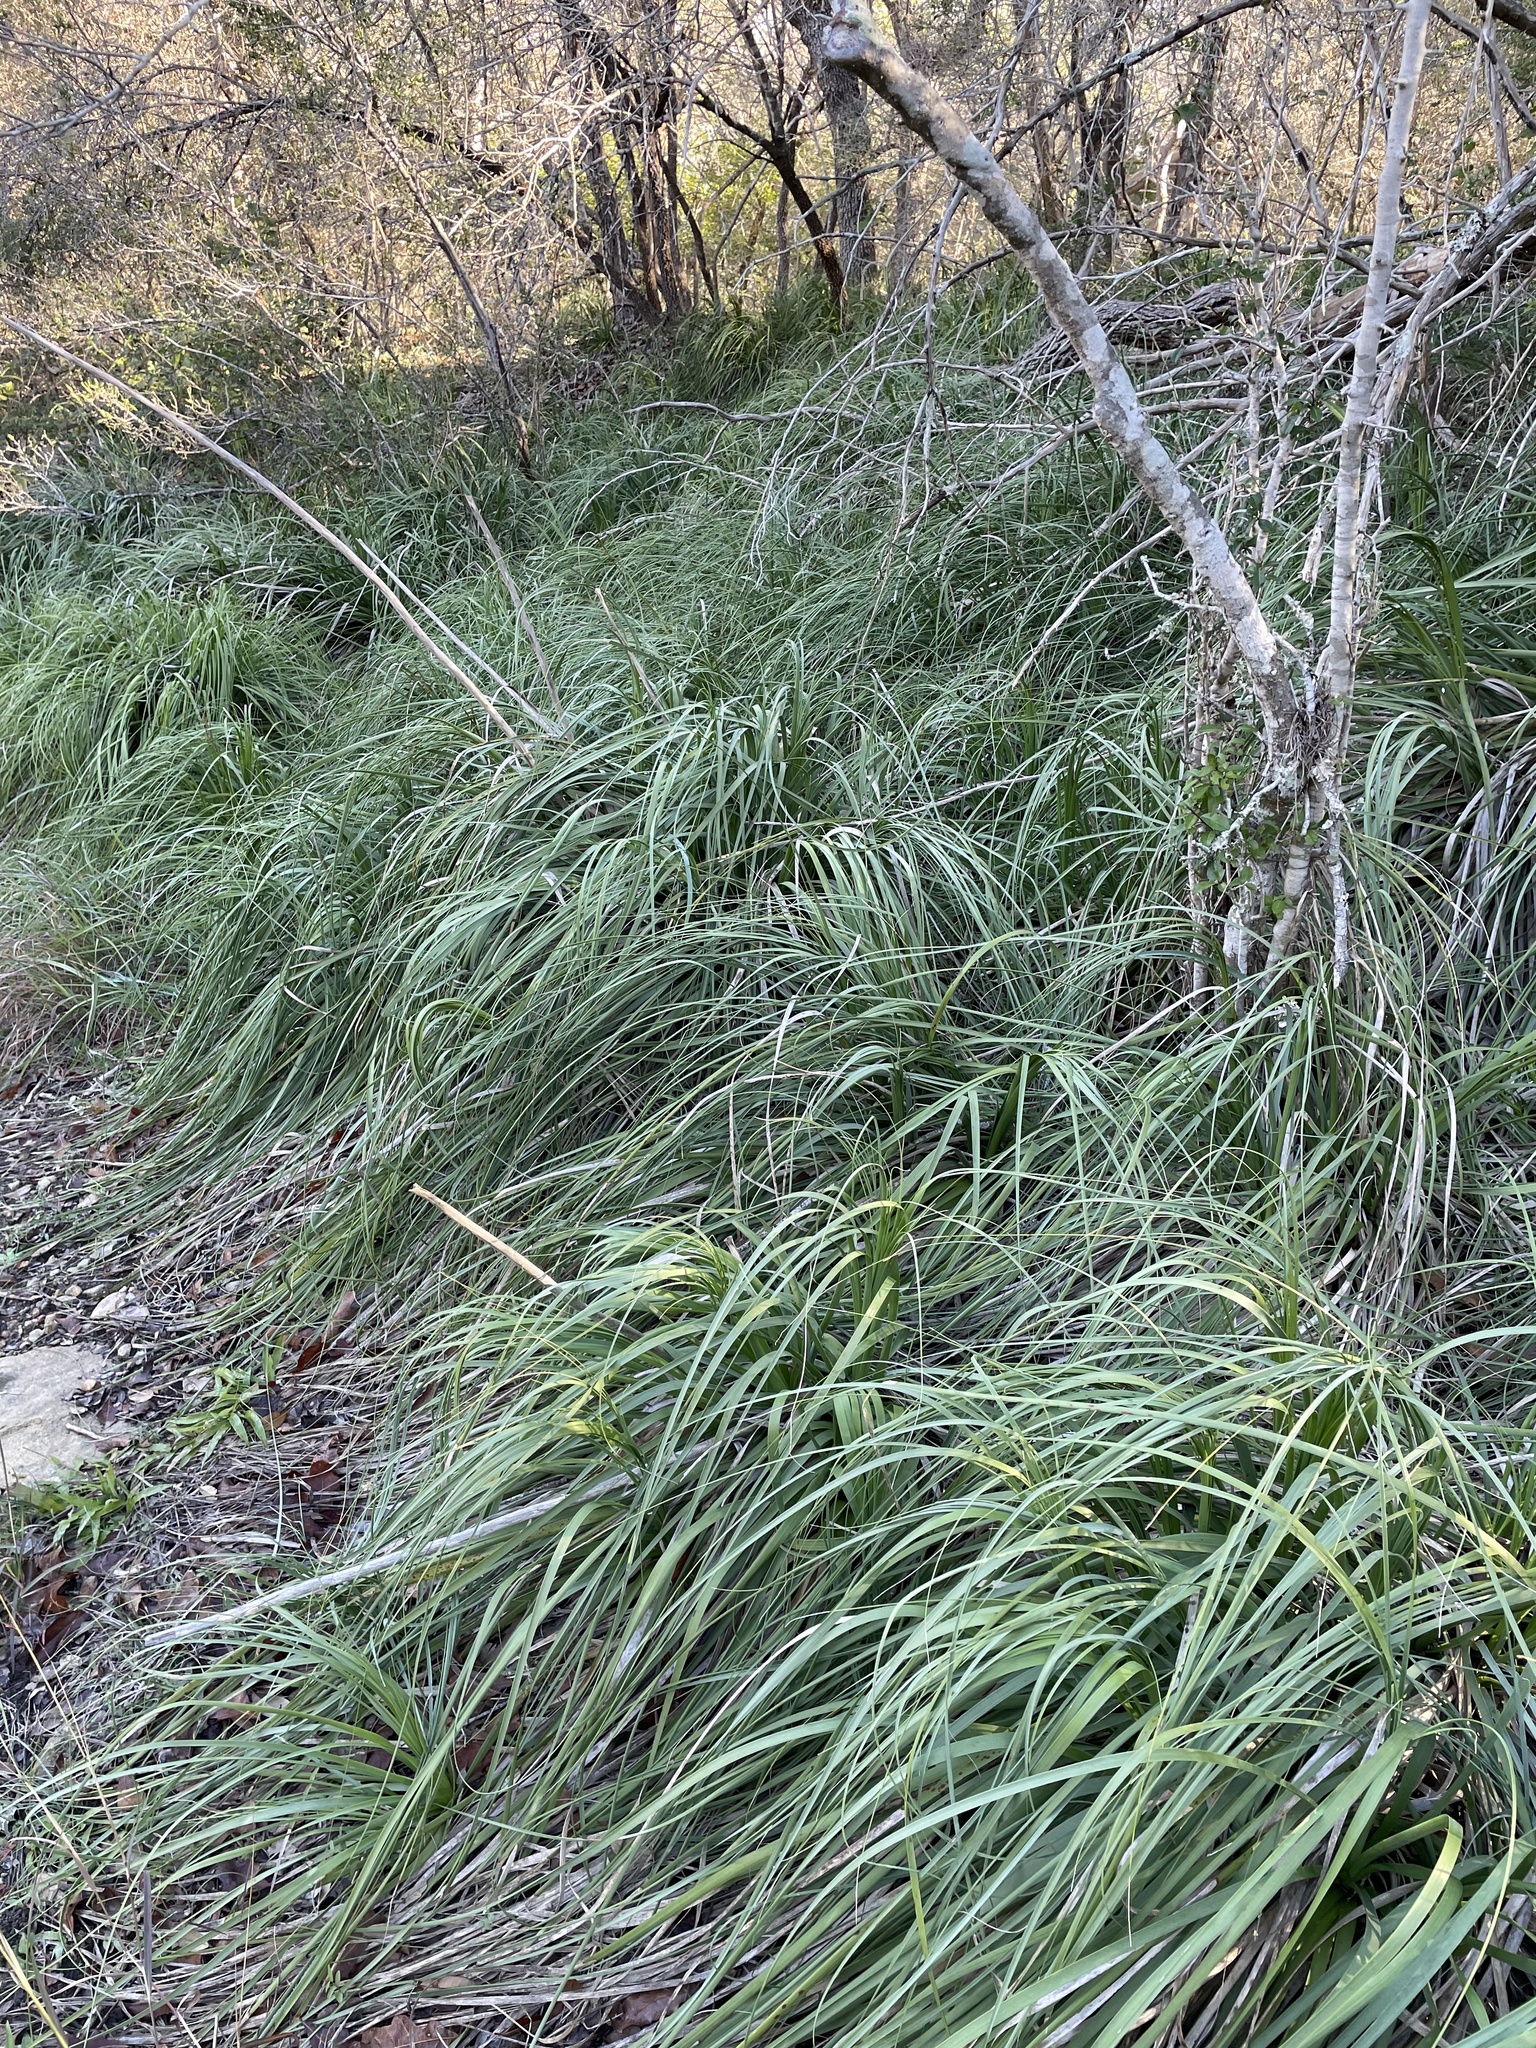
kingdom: Plantae
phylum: Tracheophyta
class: Liliopsida
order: Asparagales
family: Asparagaceae
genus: Nolina
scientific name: Nolina lindheimeriana
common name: Lindheimer's bear-grass
